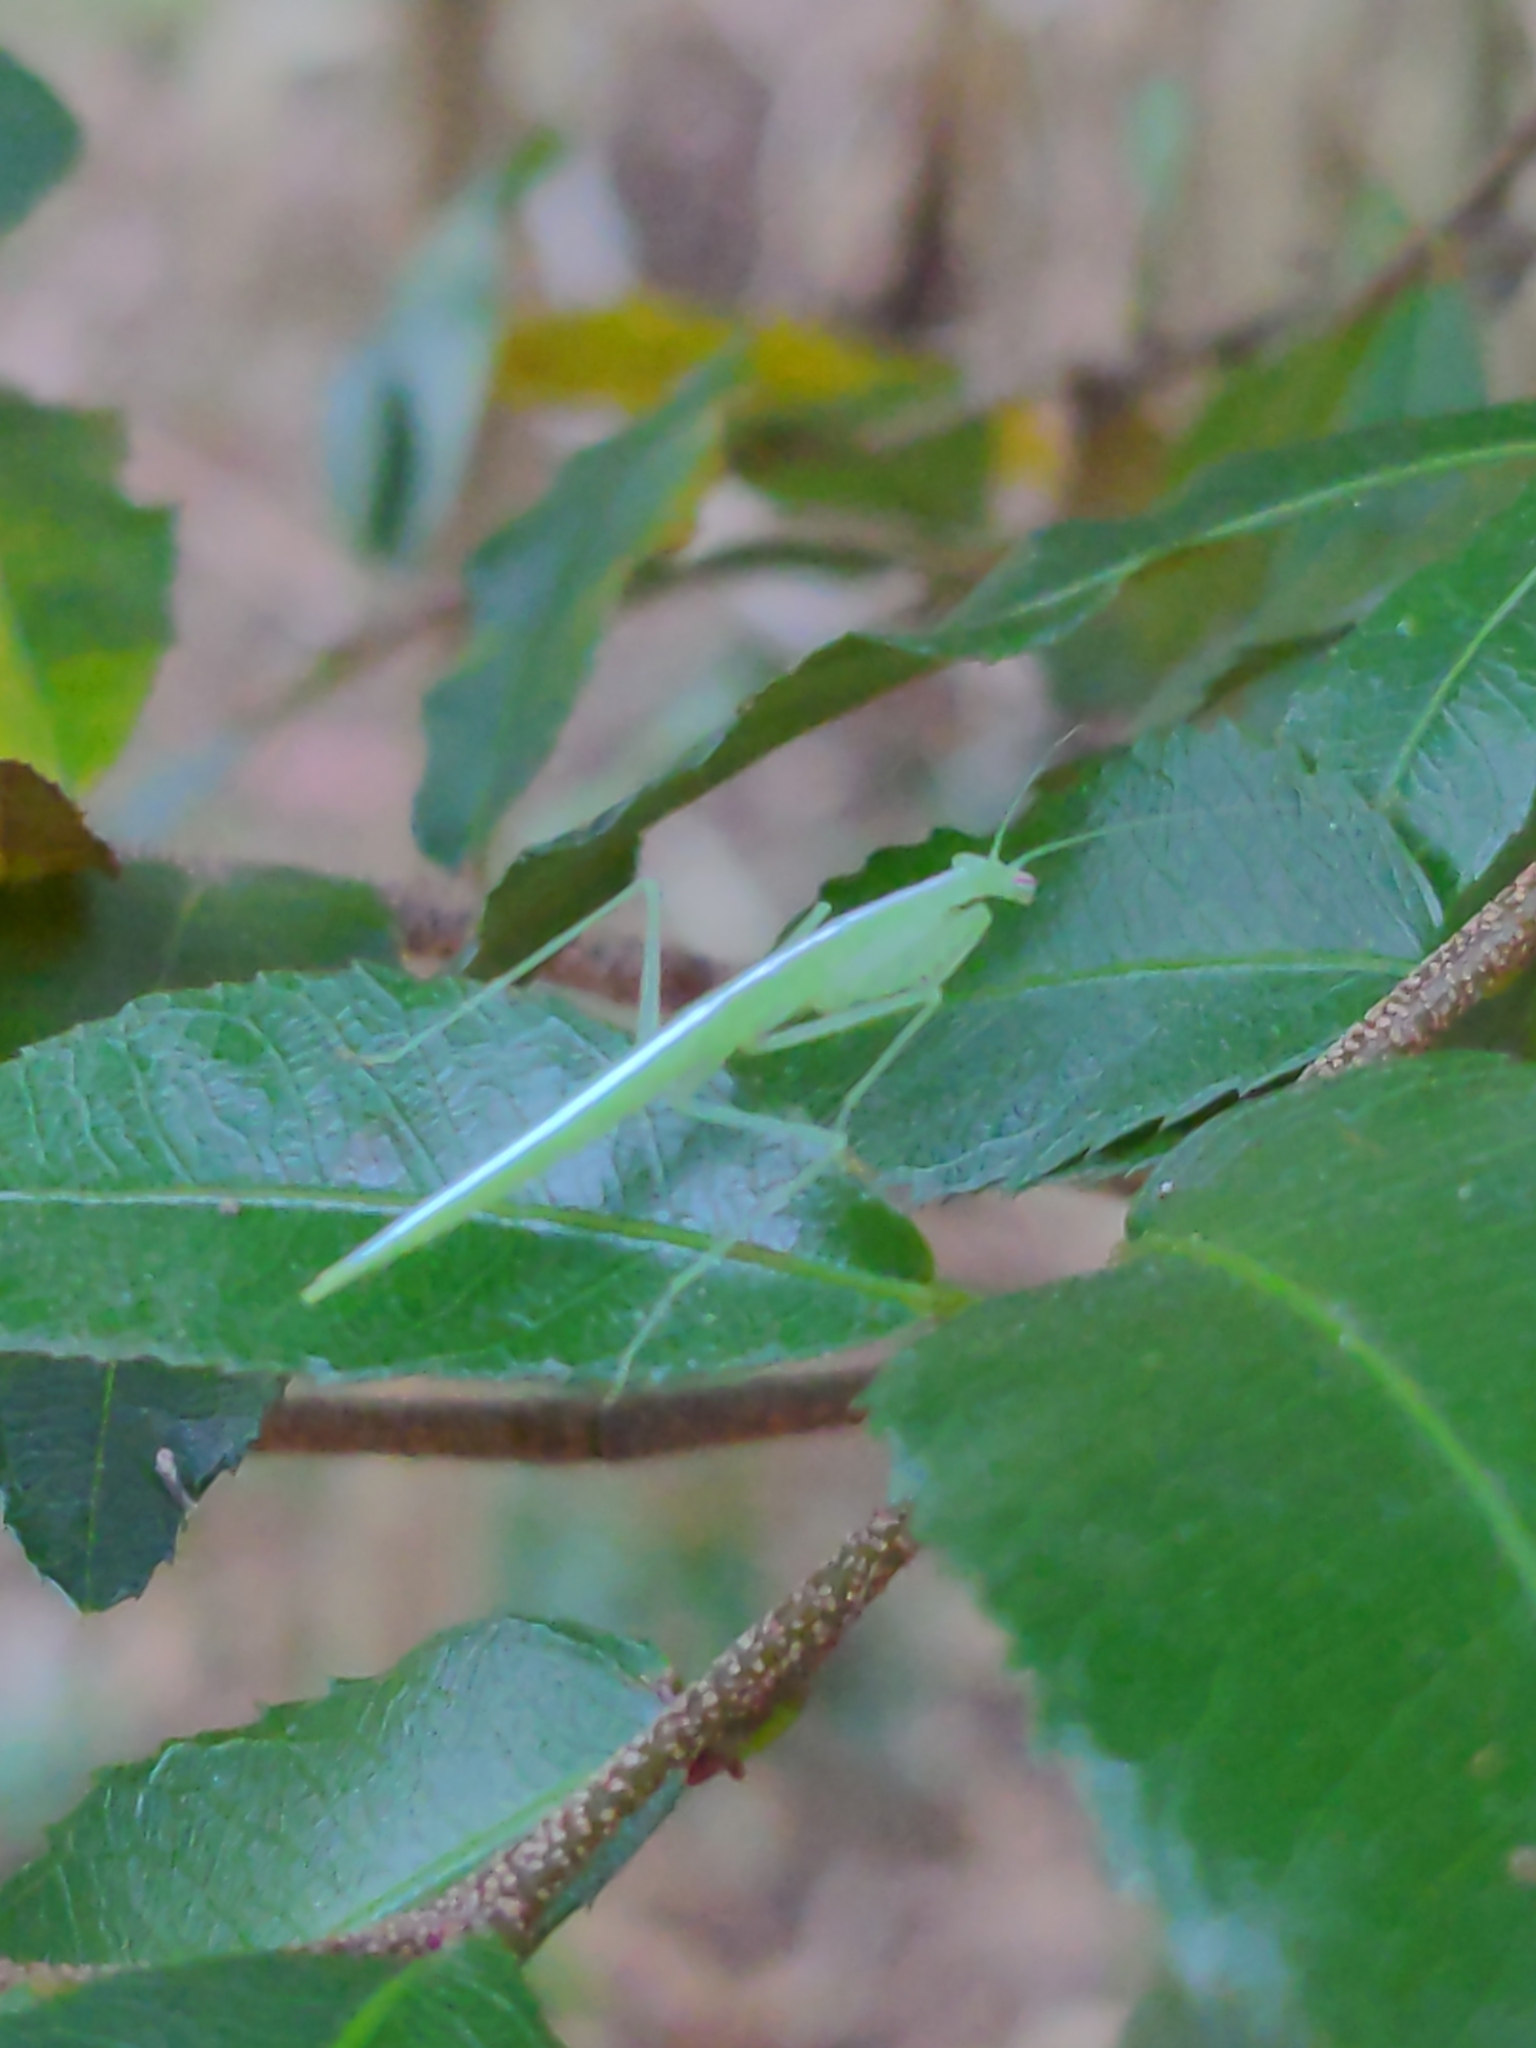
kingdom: Animalia
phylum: Arthropoda
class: Insecta
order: Mantodea
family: Nanomantidae
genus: Kongobatha
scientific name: Kongobatha diademata
